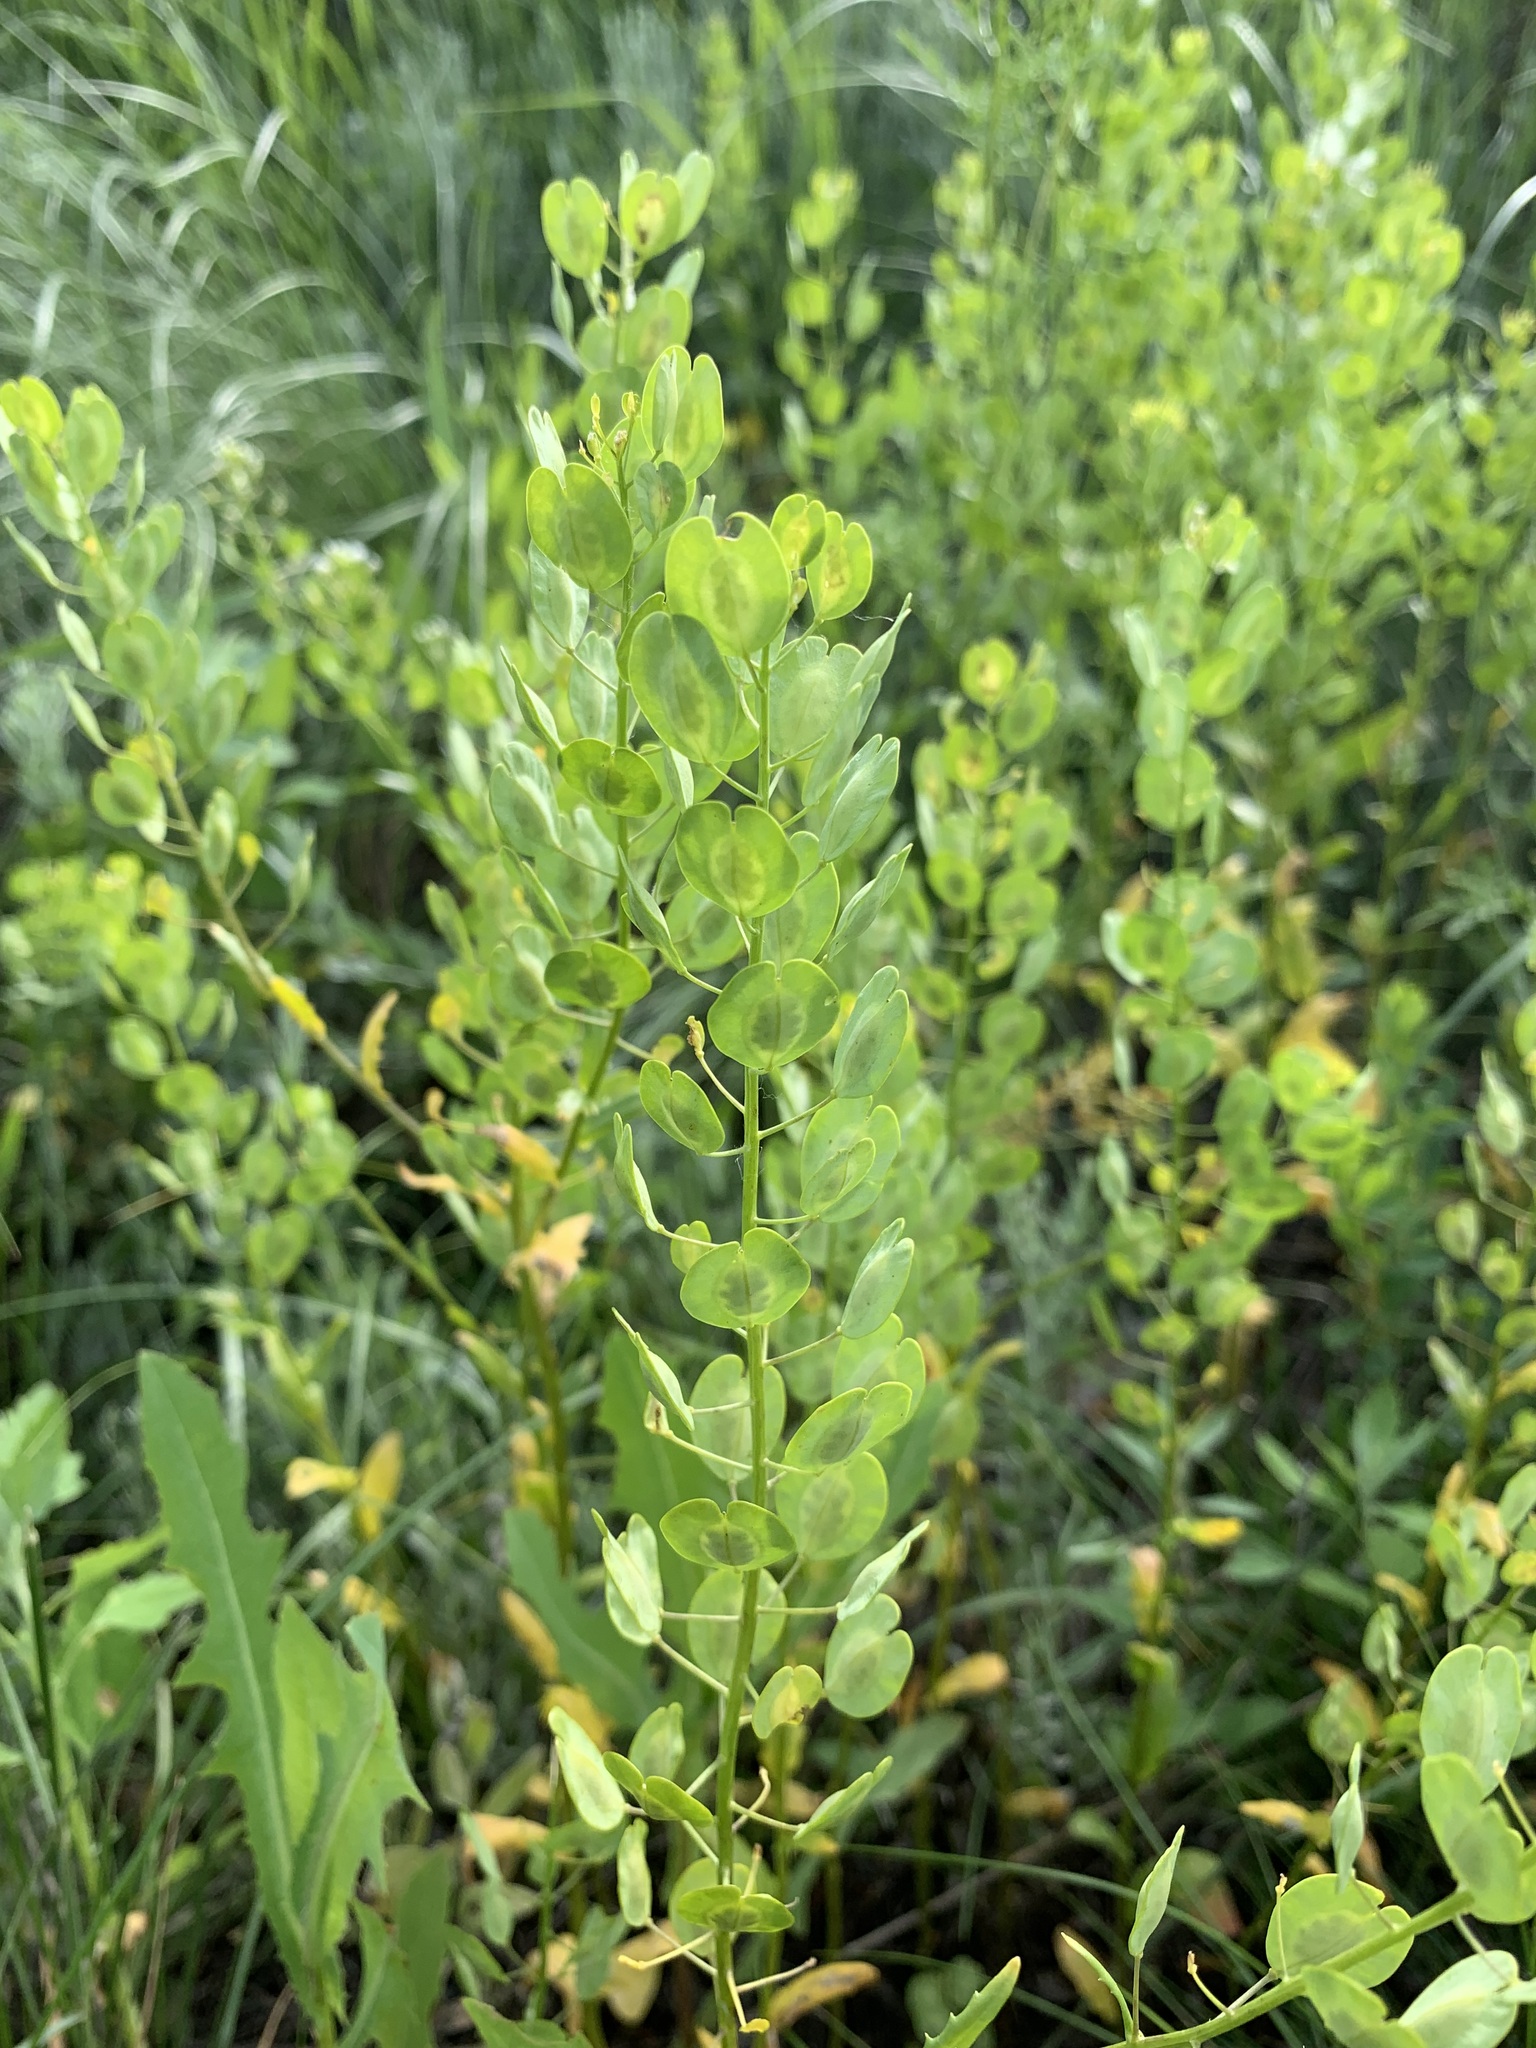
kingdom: Plantae
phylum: Tracheophyta
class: Magnoliopsida
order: Brassicales
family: Brassicaceae
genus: Thlaspi
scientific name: Thlaspi arvense
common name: Field pennycress
